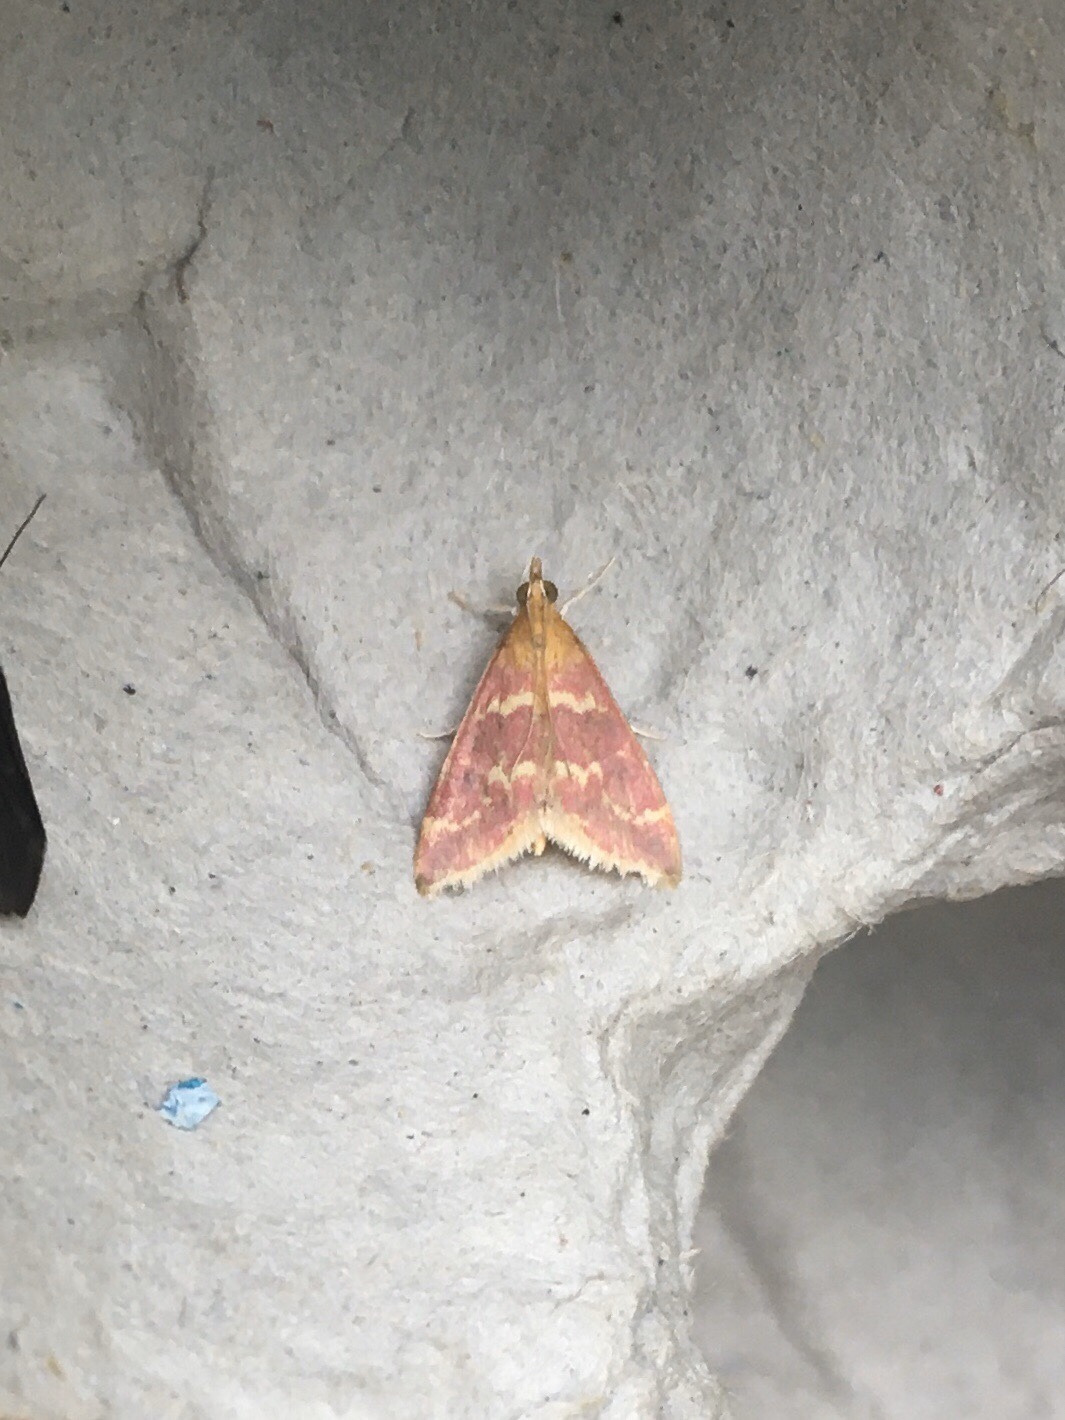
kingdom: Animalia
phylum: Arthropoda
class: Insecta
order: Lepidoptera
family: Crambidae
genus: Pyrausta
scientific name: Pyrausta signatalis
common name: Raspberry pyrausta moth
